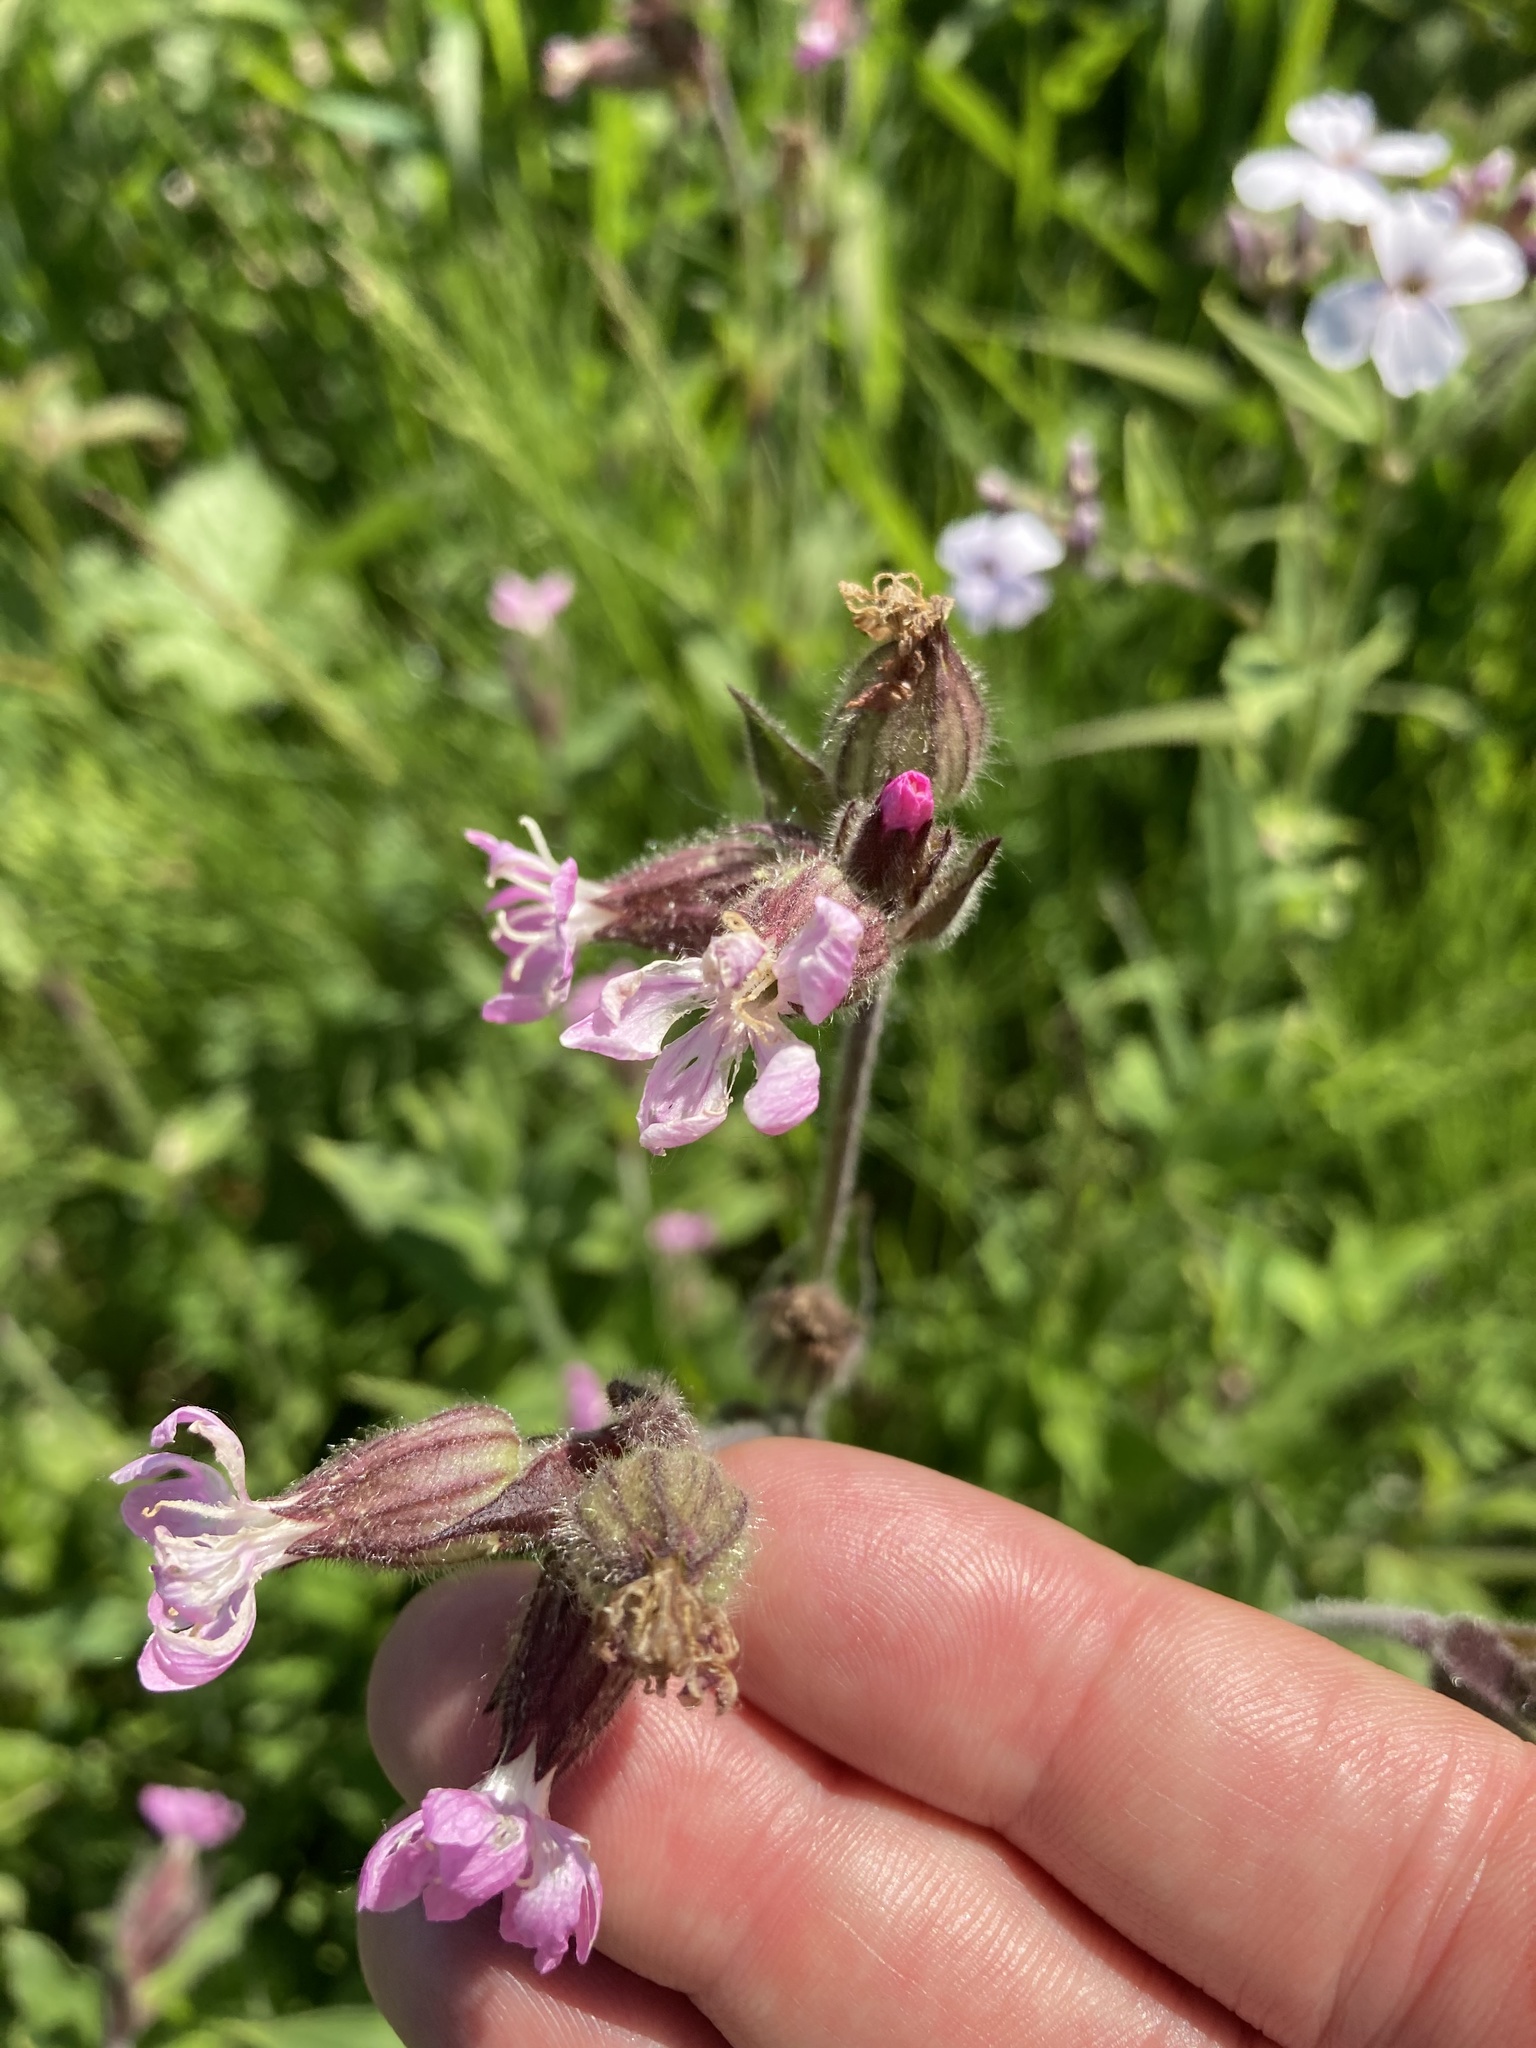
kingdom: Plantae
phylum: Tracheophyta
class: Magnoliopsida
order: Caryophyllales
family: Caryophyllaceae
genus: Silene
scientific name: Silene dioica
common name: Red campion
